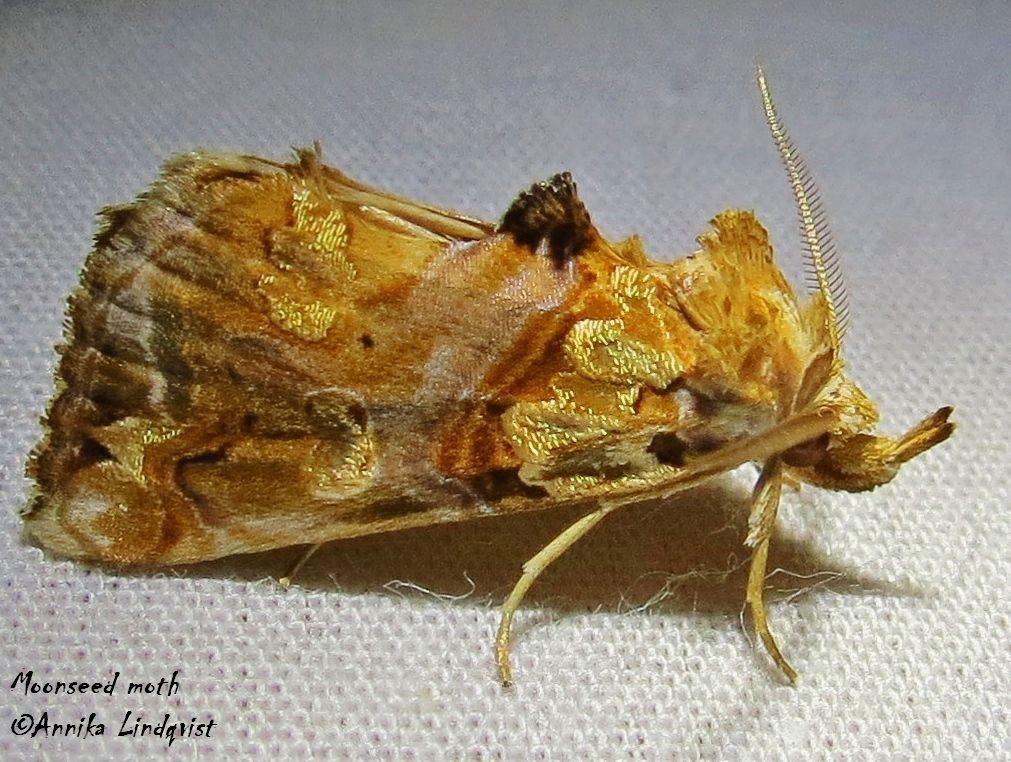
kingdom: Animalia
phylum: Arthropoda
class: Insecta
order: Lepidoptera
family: Erebidae
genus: Plusiodonta
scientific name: Plusiodonta compressipalpis
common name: Moonseed moth
